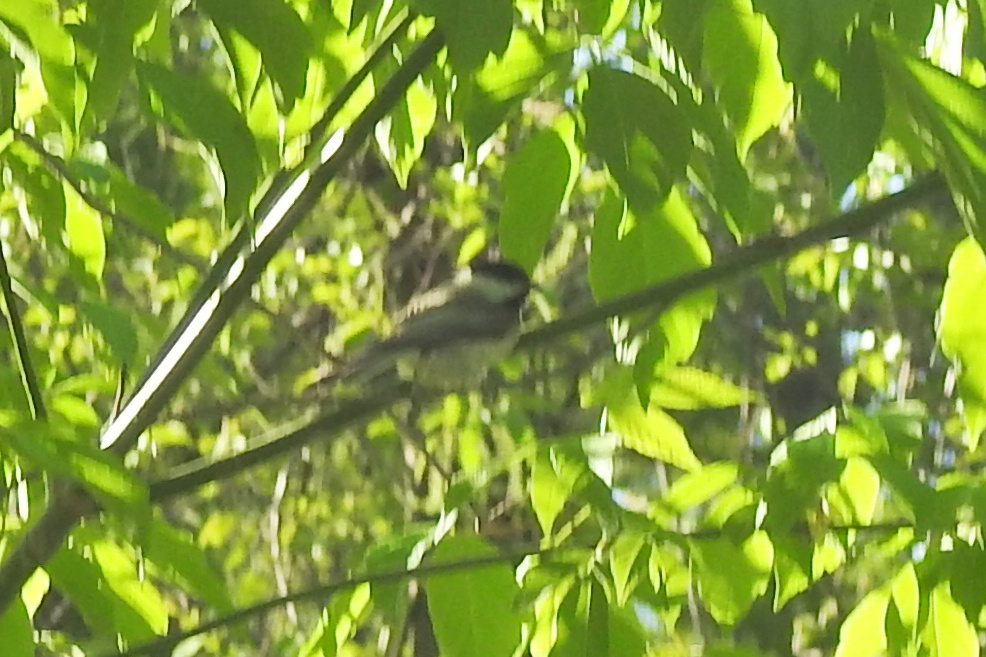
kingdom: Animalia
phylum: Chordata
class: Aves
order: Passeriformes
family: Paridae
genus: Poecile
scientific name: Poecile carolinensis
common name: Carolina chickadee
